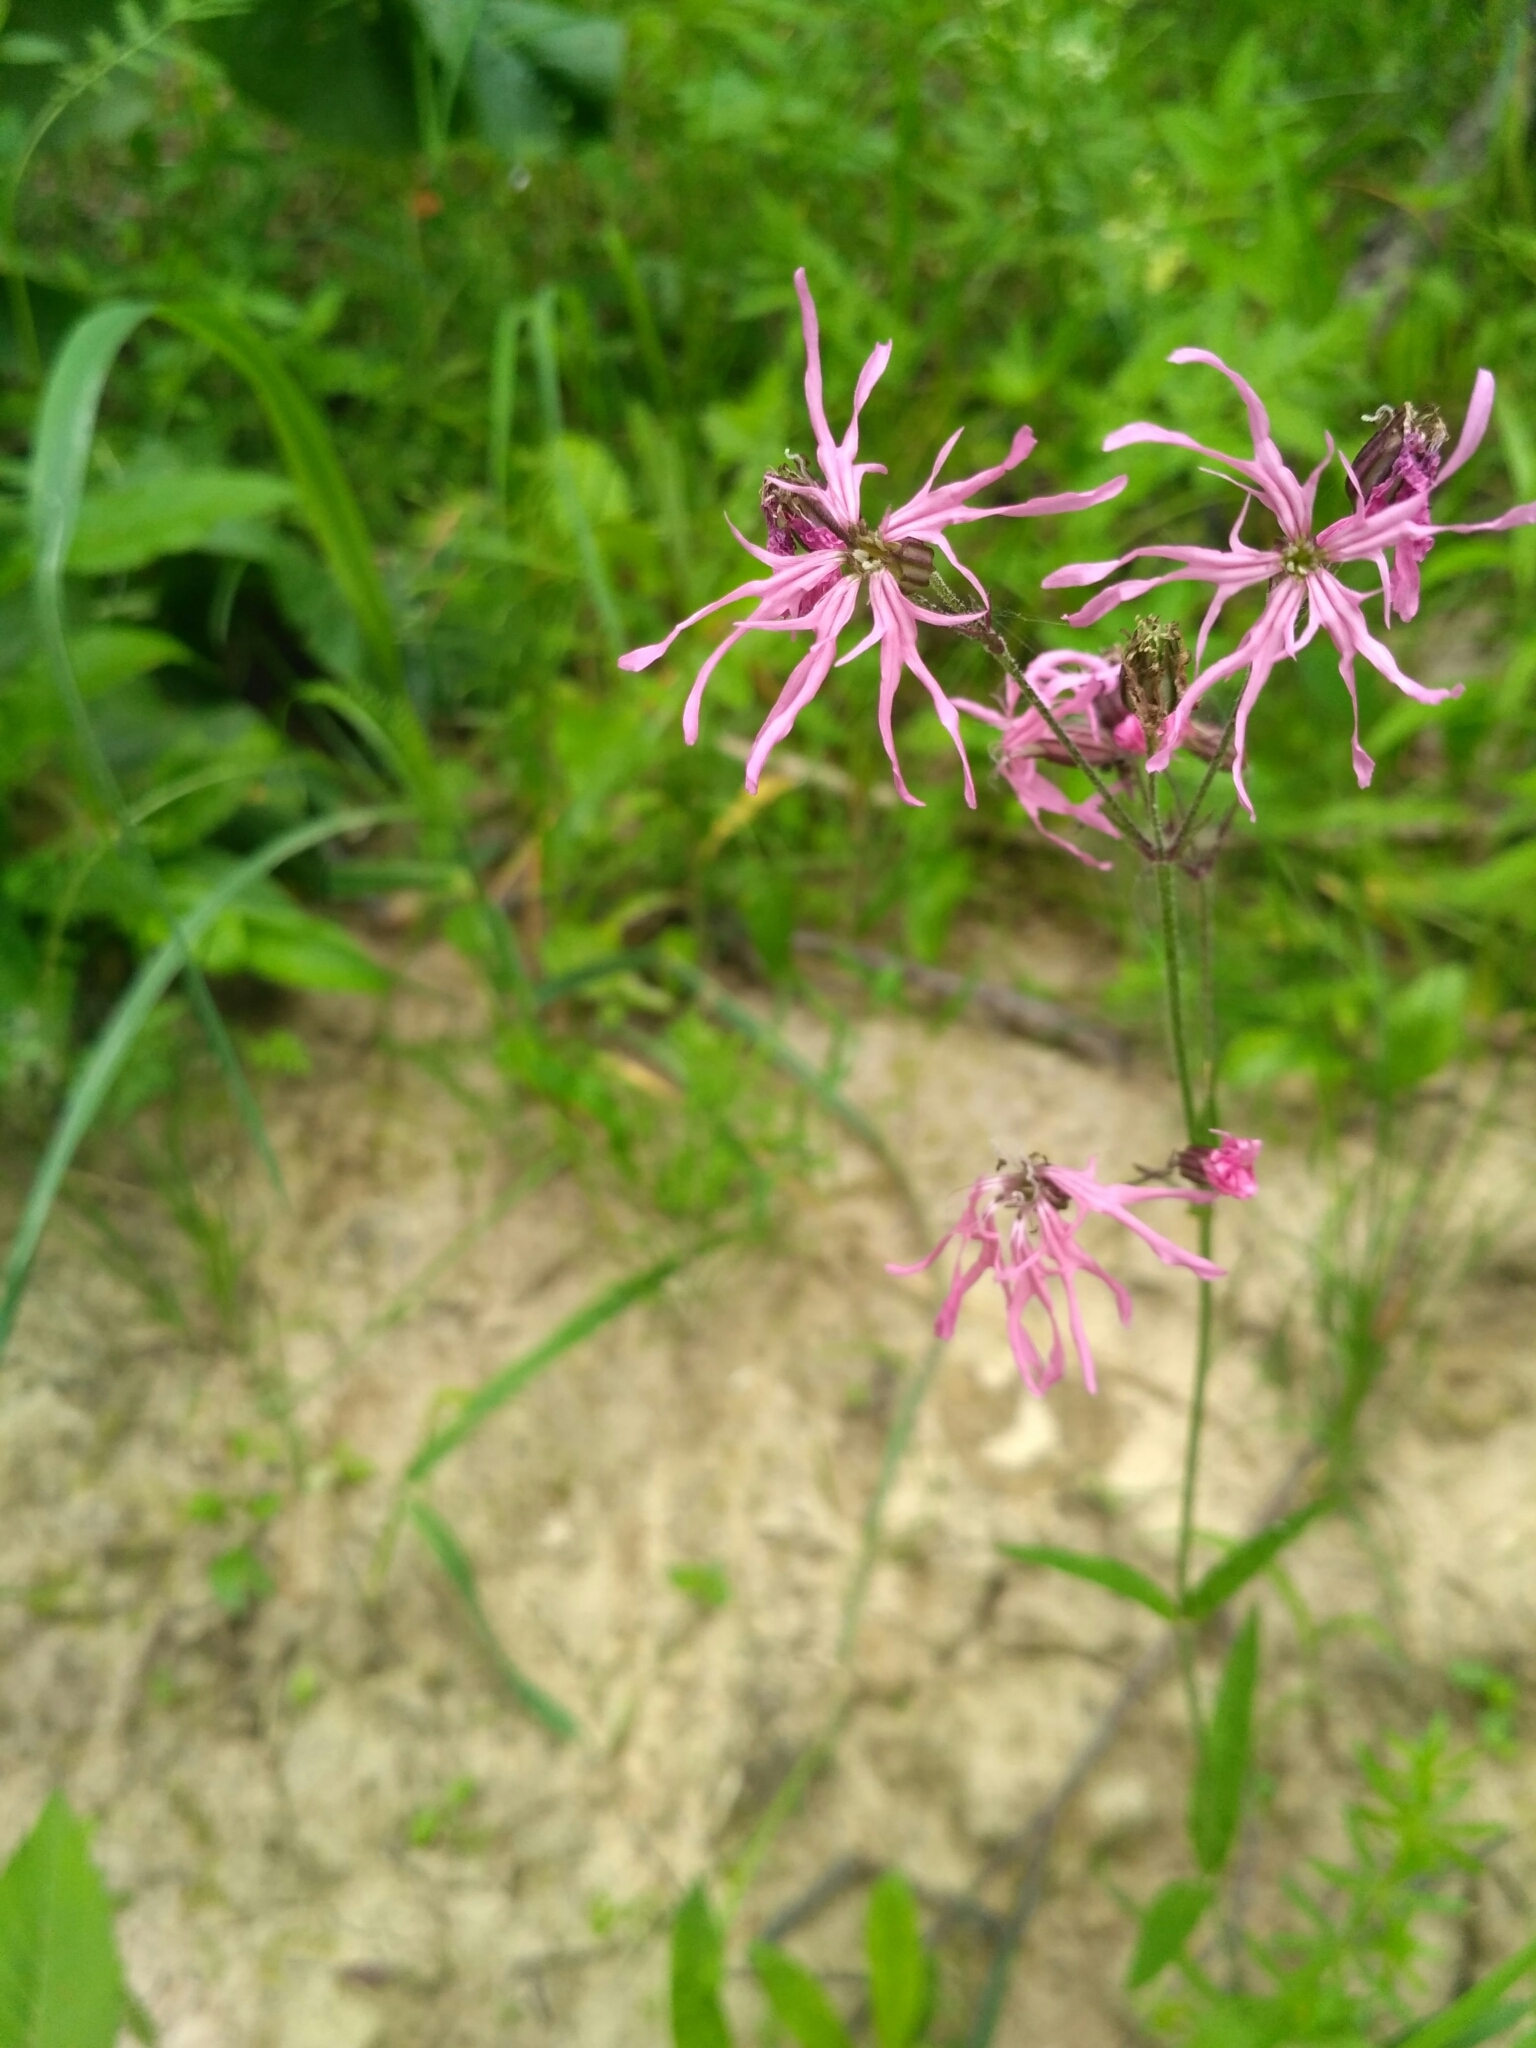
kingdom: Plantae
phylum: Tracheophyta
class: Magnoliopsida
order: Caryophyllales
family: Caryophyllaceae
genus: Silene
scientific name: Silene flos-cuculi
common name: Ragged-robin
